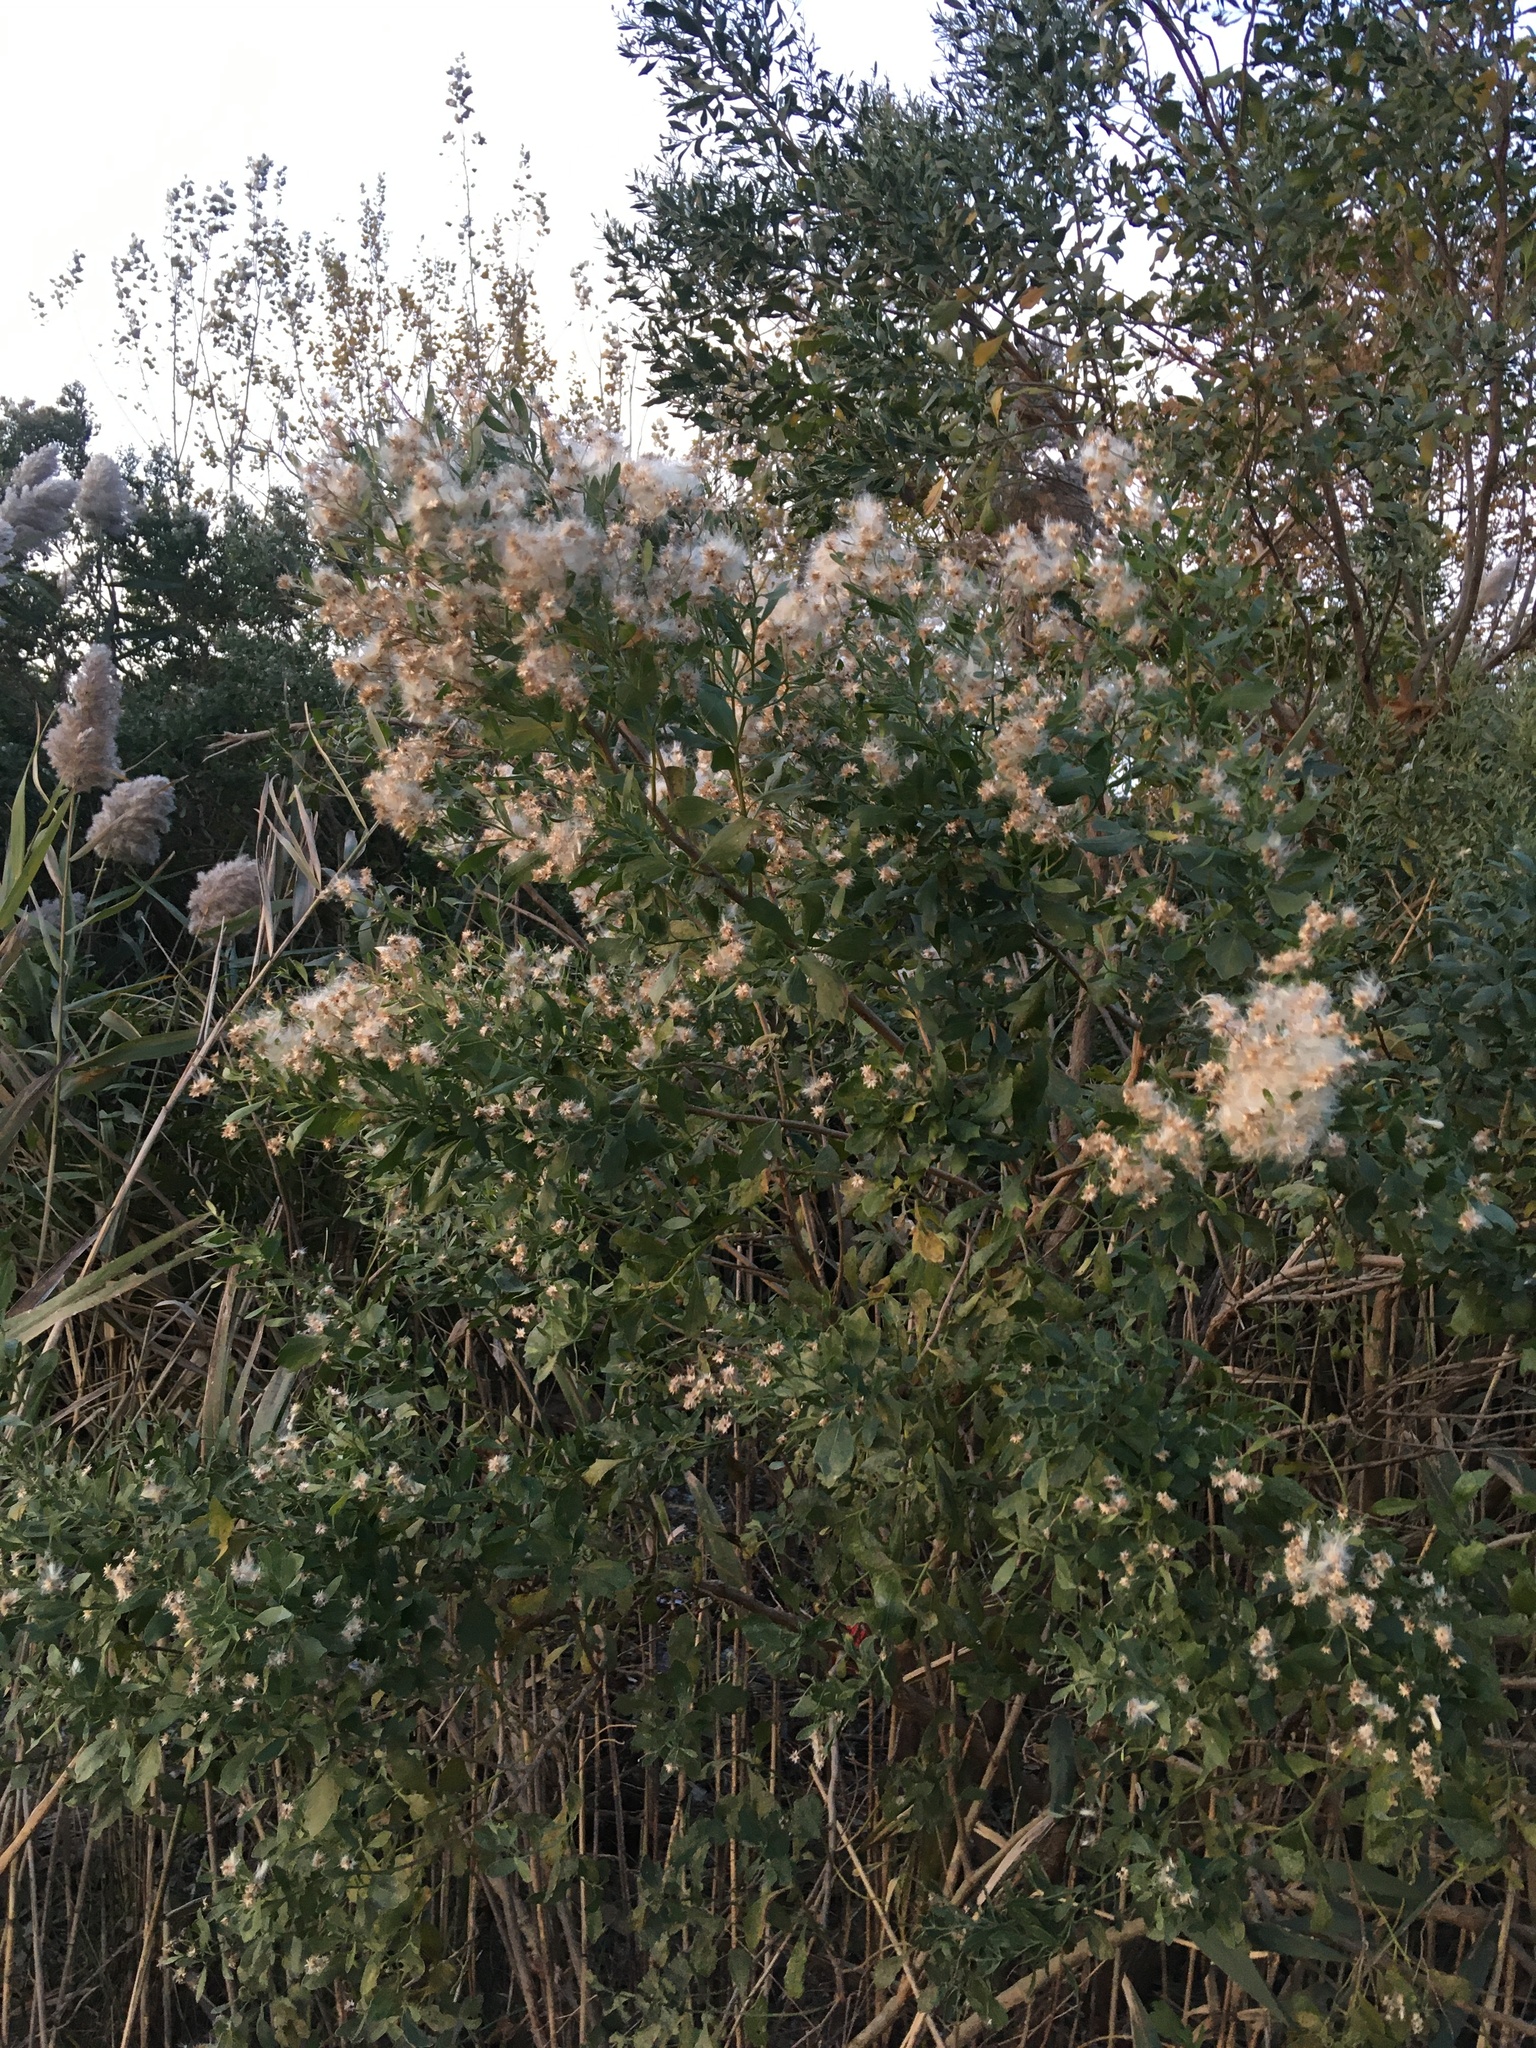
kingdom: Plantae
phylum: Tracheophyta
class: Magnoliopsida
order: Asterales
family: Asteraceae
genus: Baccharis
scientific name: Baccharis halimifolia
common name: Eastern baccharis
